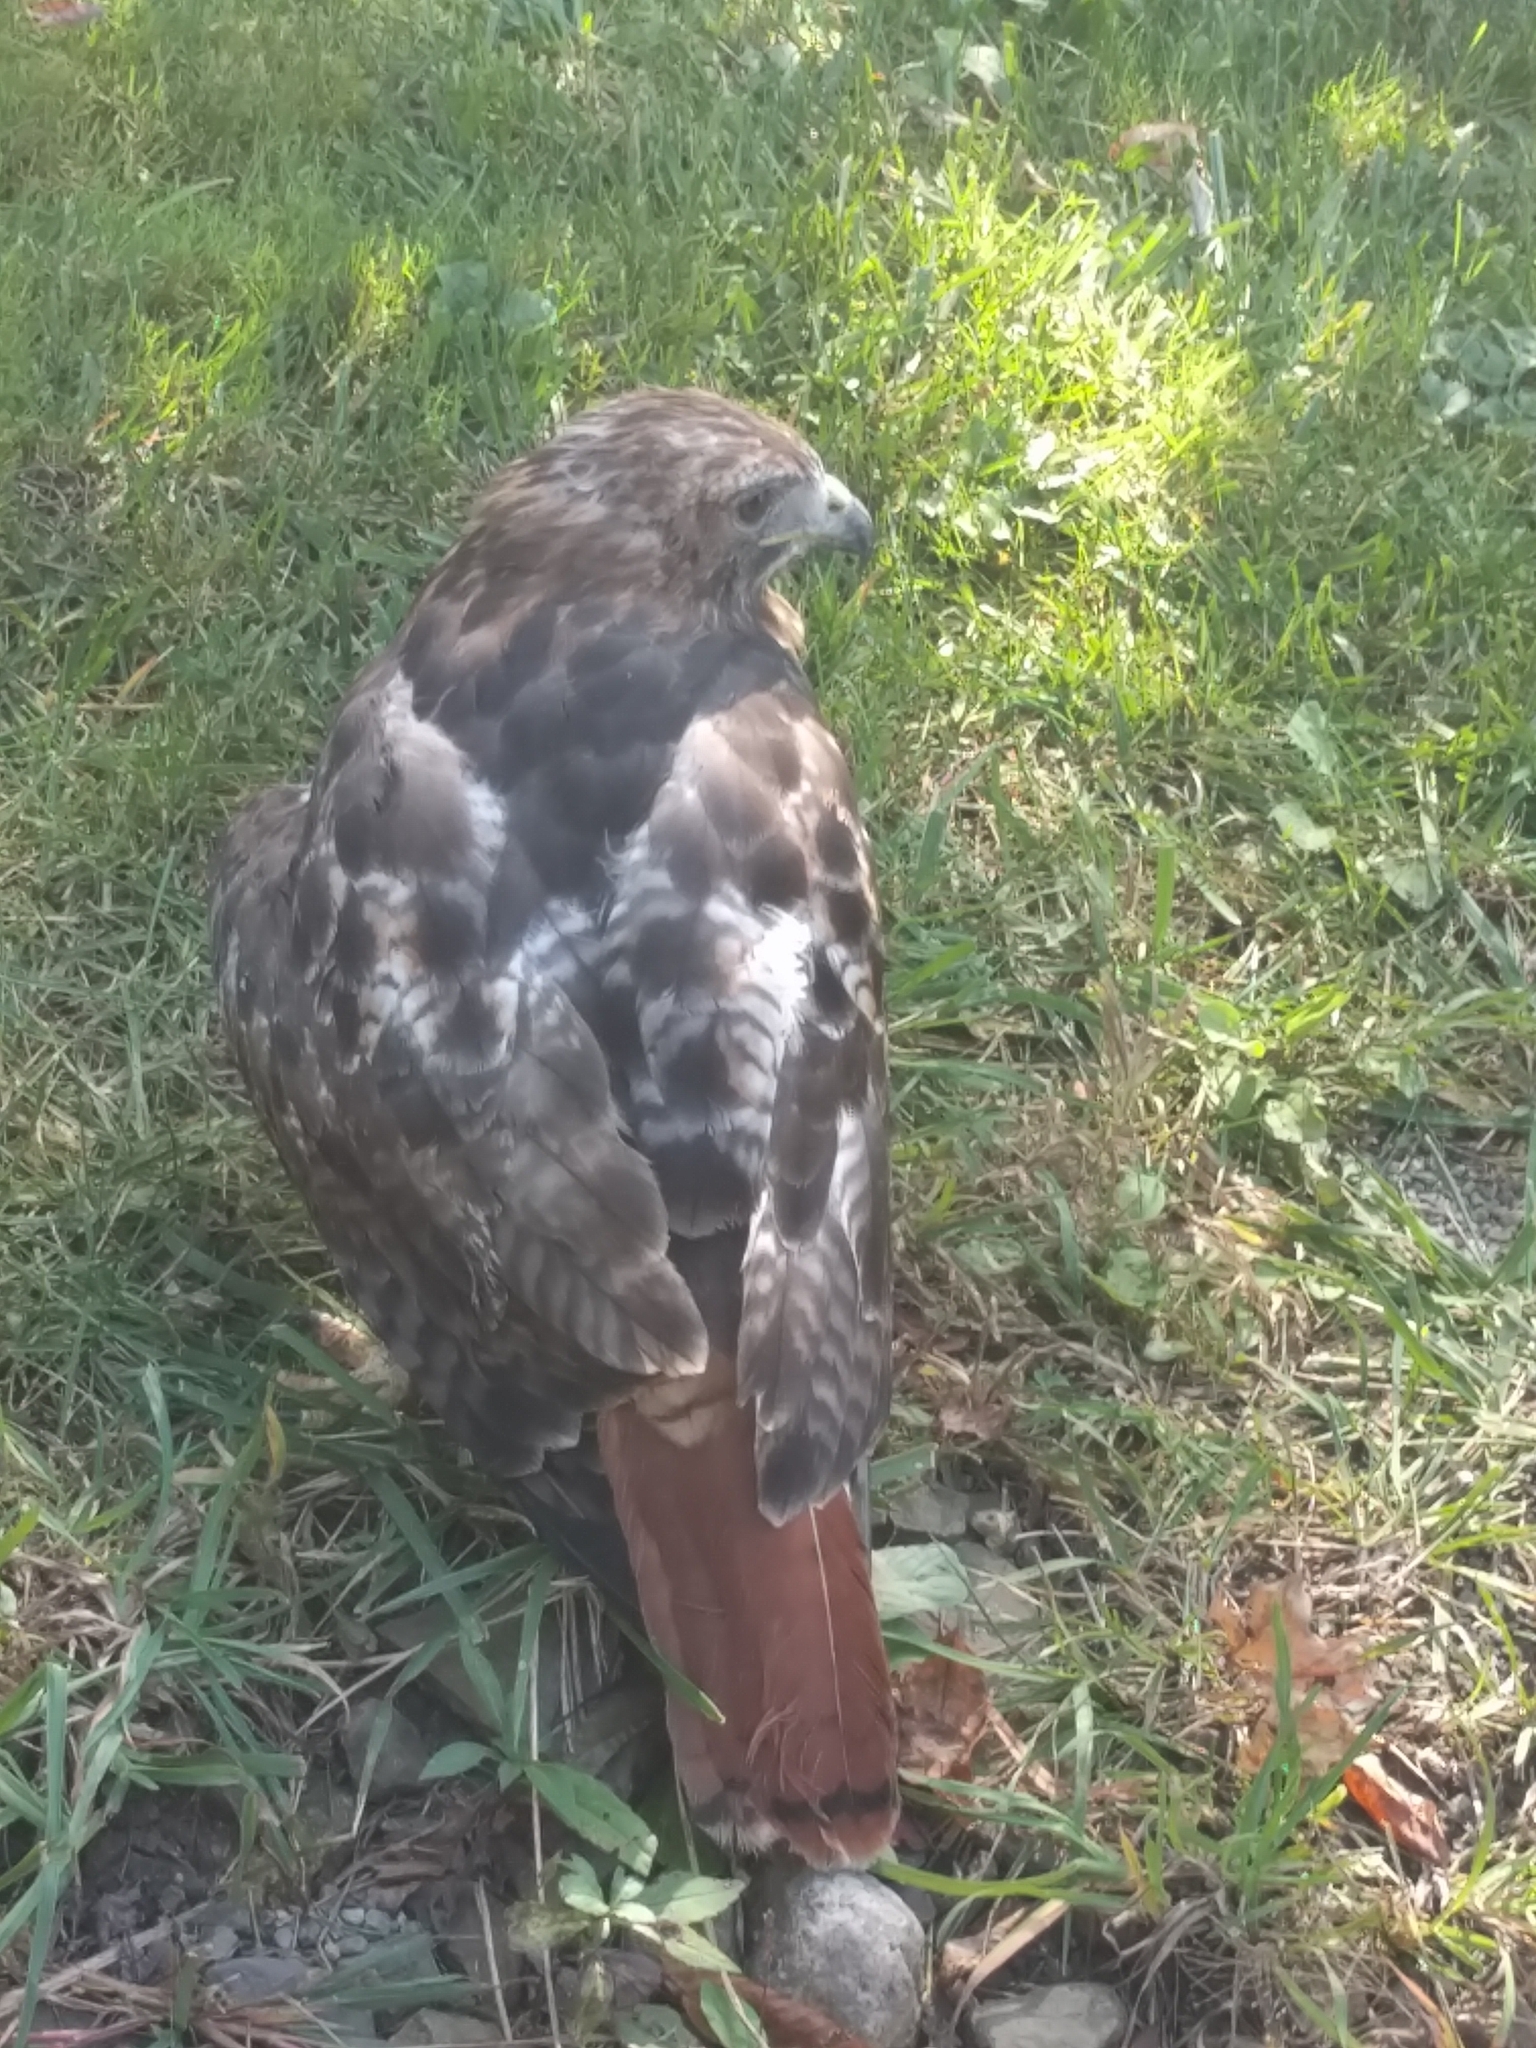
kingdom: Animalia
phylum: Chordata
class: Aves
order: Accipitriformes
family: Accipitridae
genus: Buteo
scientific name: Buteo jamaicensis
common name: Red-tailed hawk
